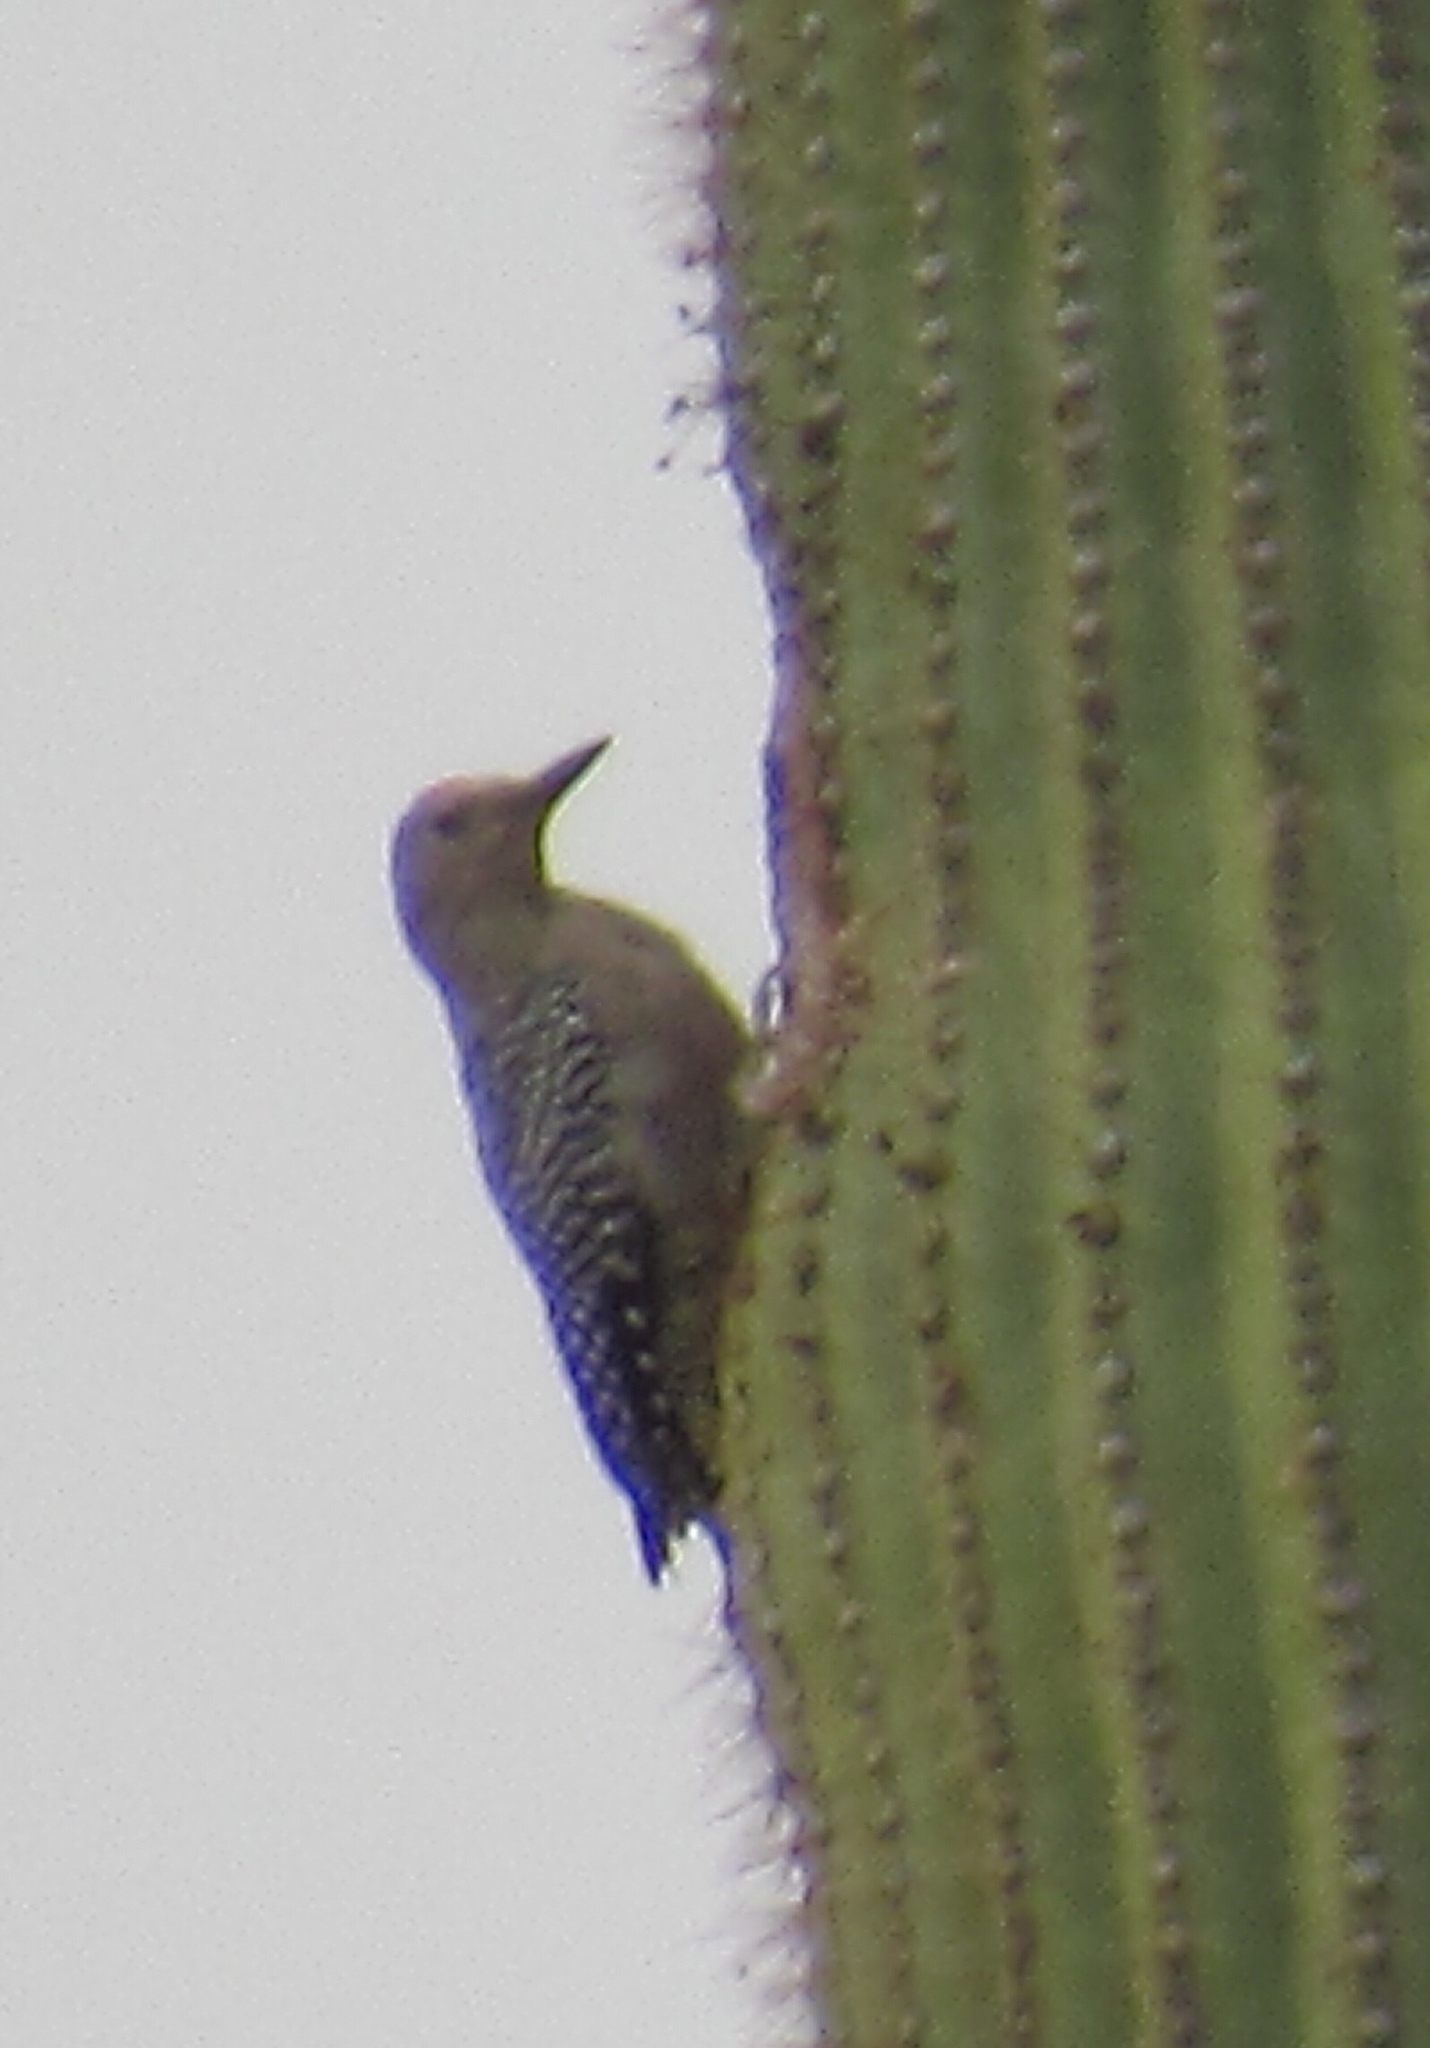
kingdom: Animalia
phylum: Chordata
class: Aves
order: Piciformes
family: Picidae
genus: Melanerpes
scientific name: Melanerpes uropygialis
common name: Gila woodpecker
